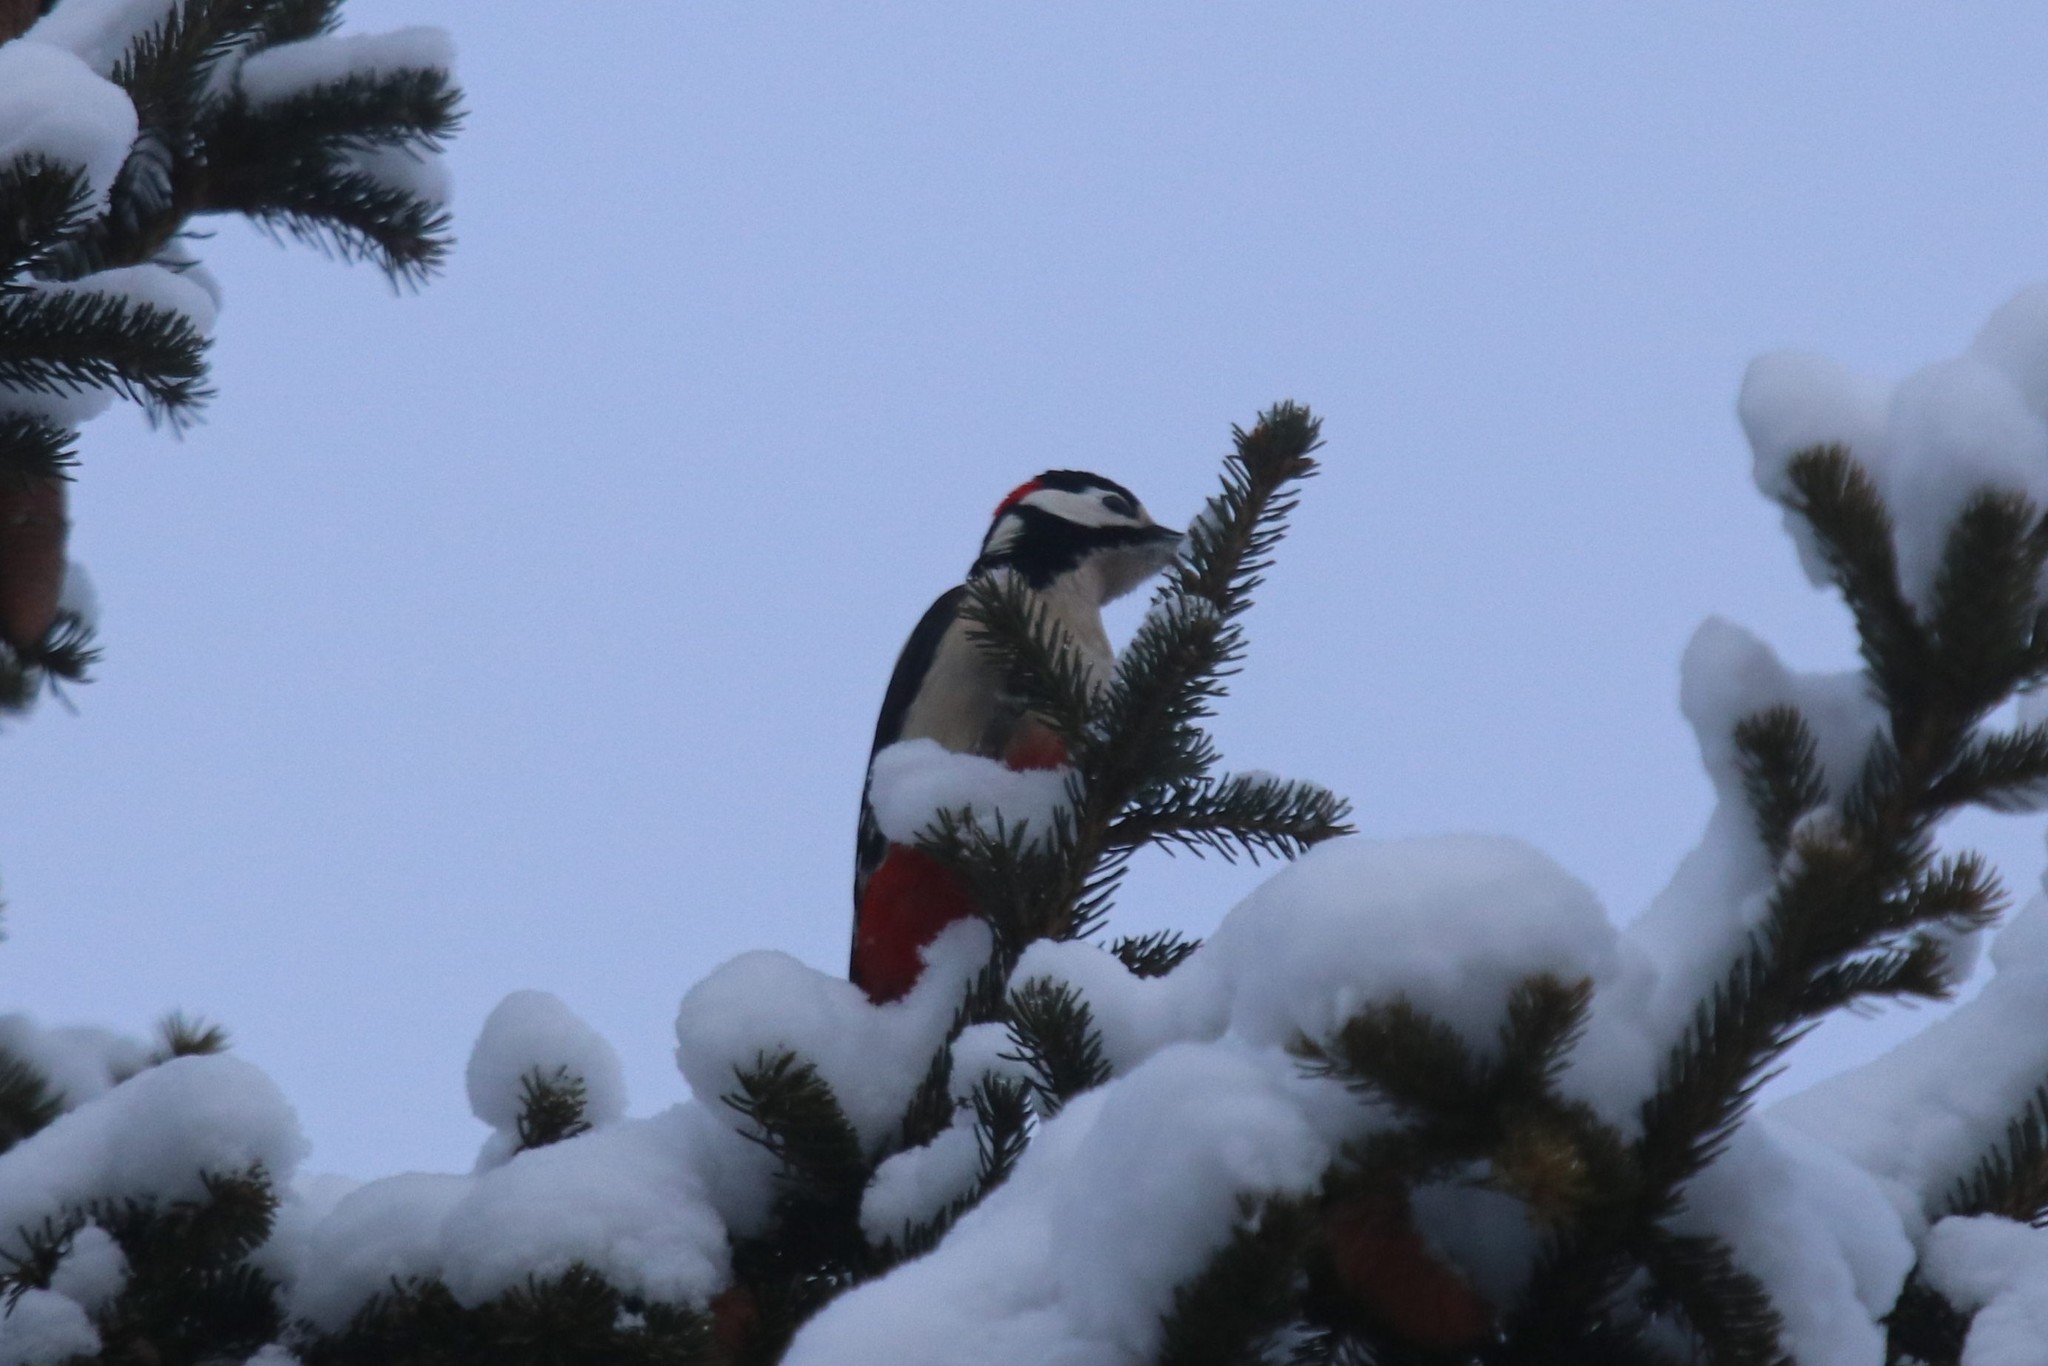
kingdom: Animalia
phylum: Chordata
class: Aves
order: Piciformes
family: Picidae
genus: Dendrocopos
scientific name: Dendrocopos major
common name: Great spotted woodpecker
